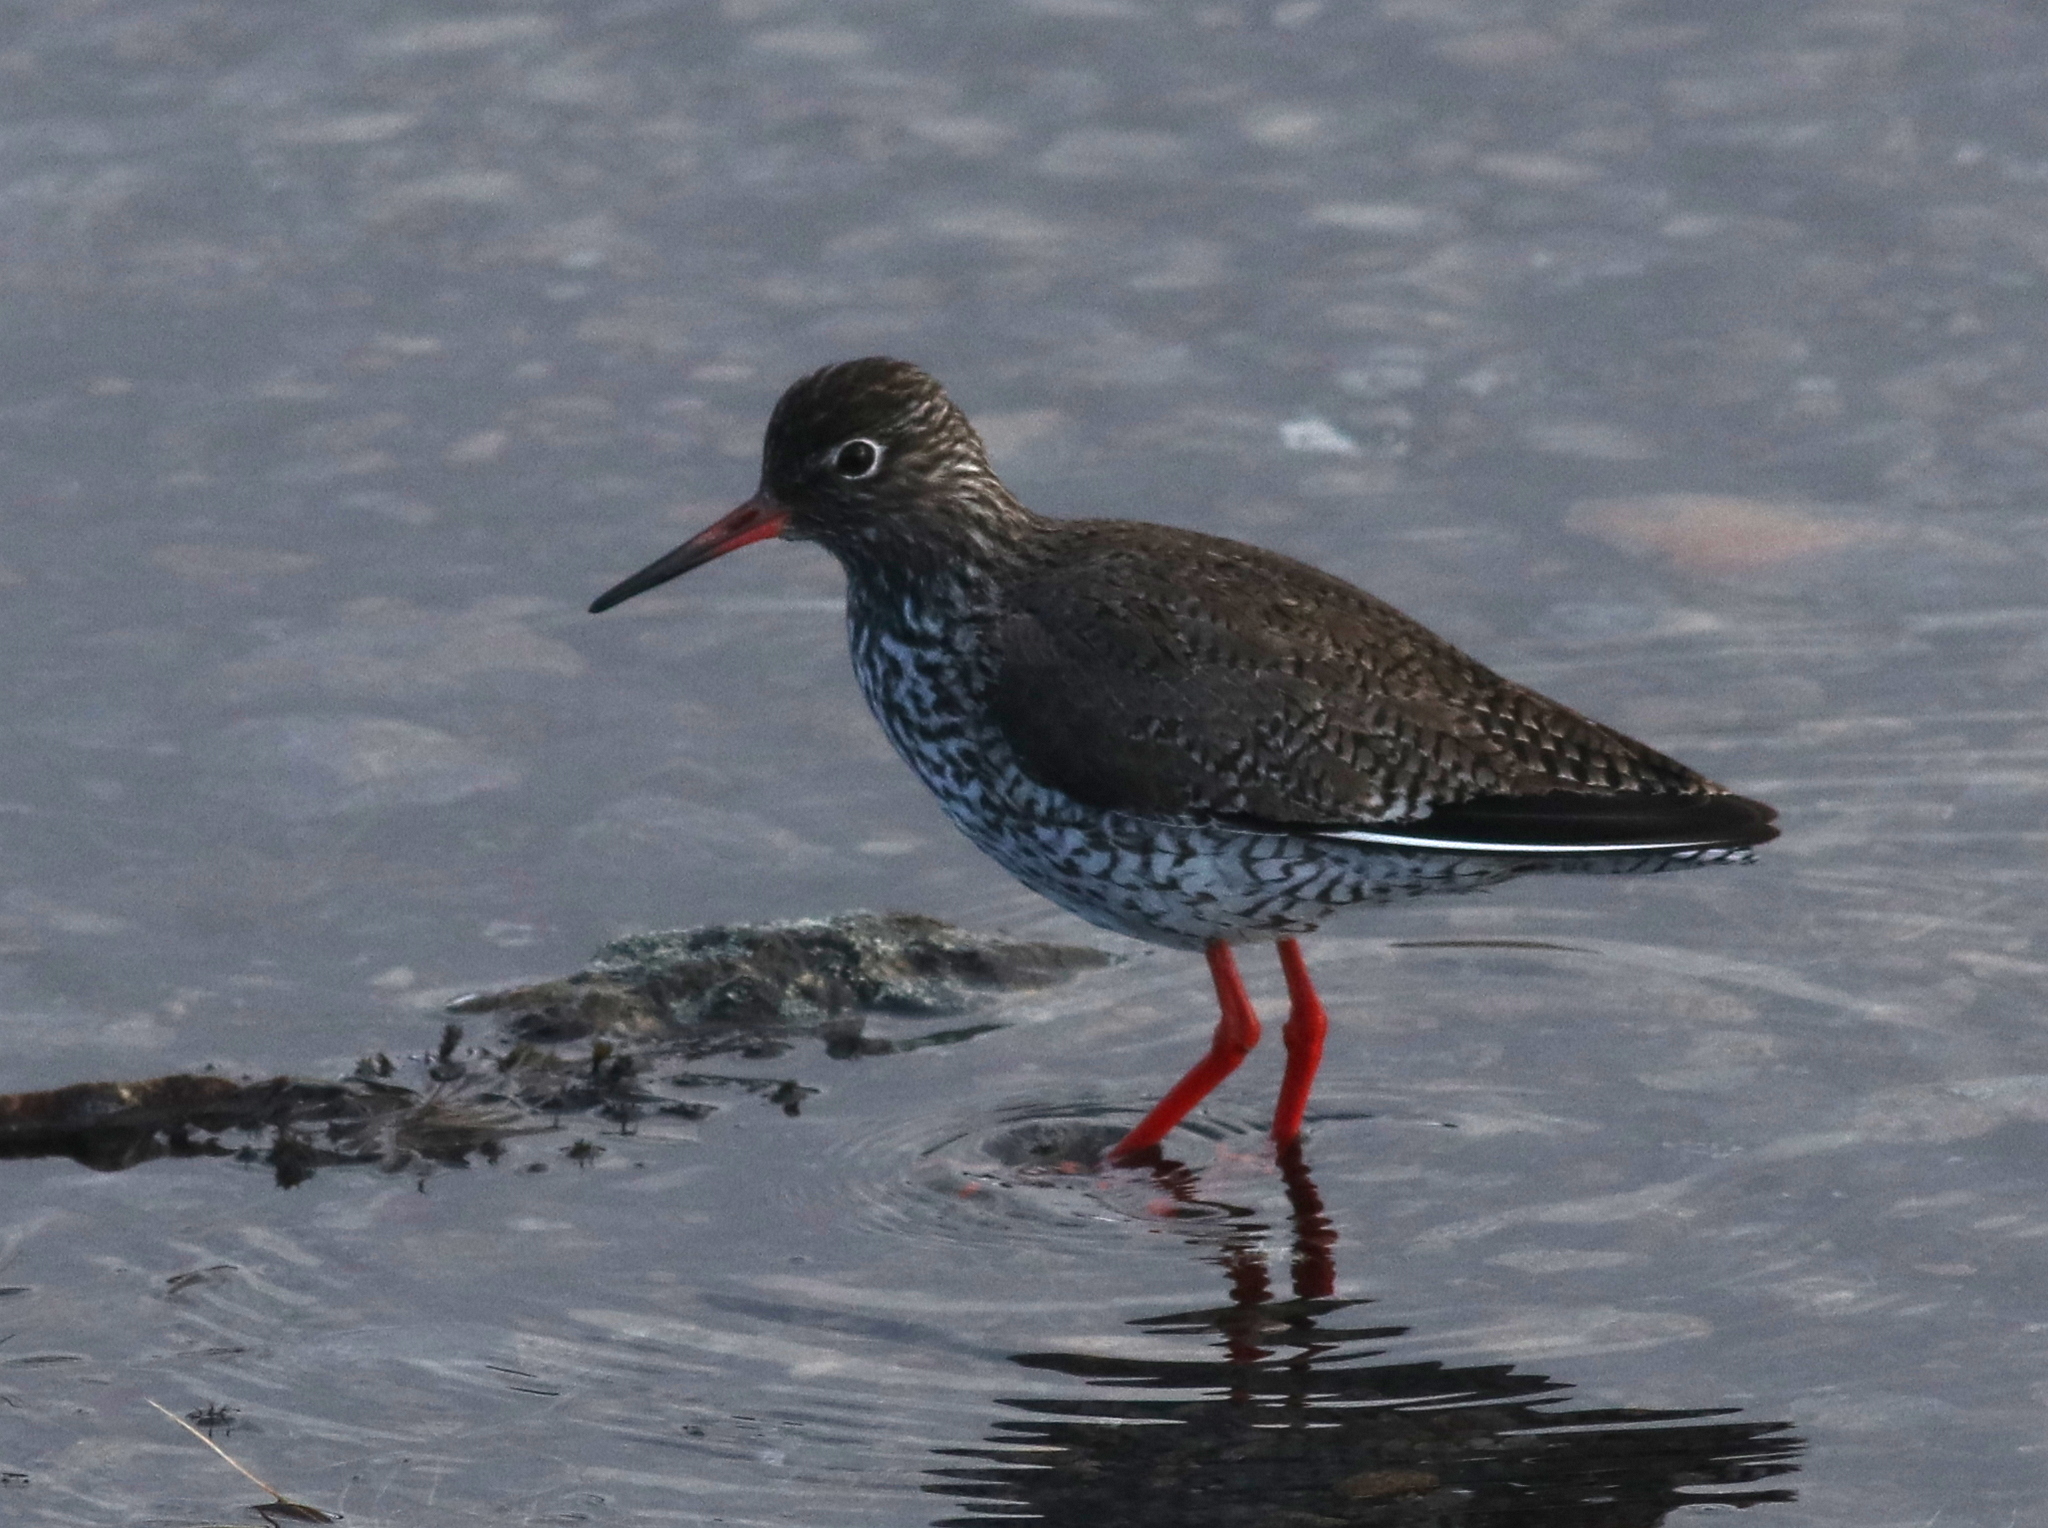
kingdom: Animalia
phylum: Chordata
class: Aves
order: Charadriiformes
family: Scolopacidae
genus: Tringa
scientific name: Tringa totanus
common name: Common redshank
